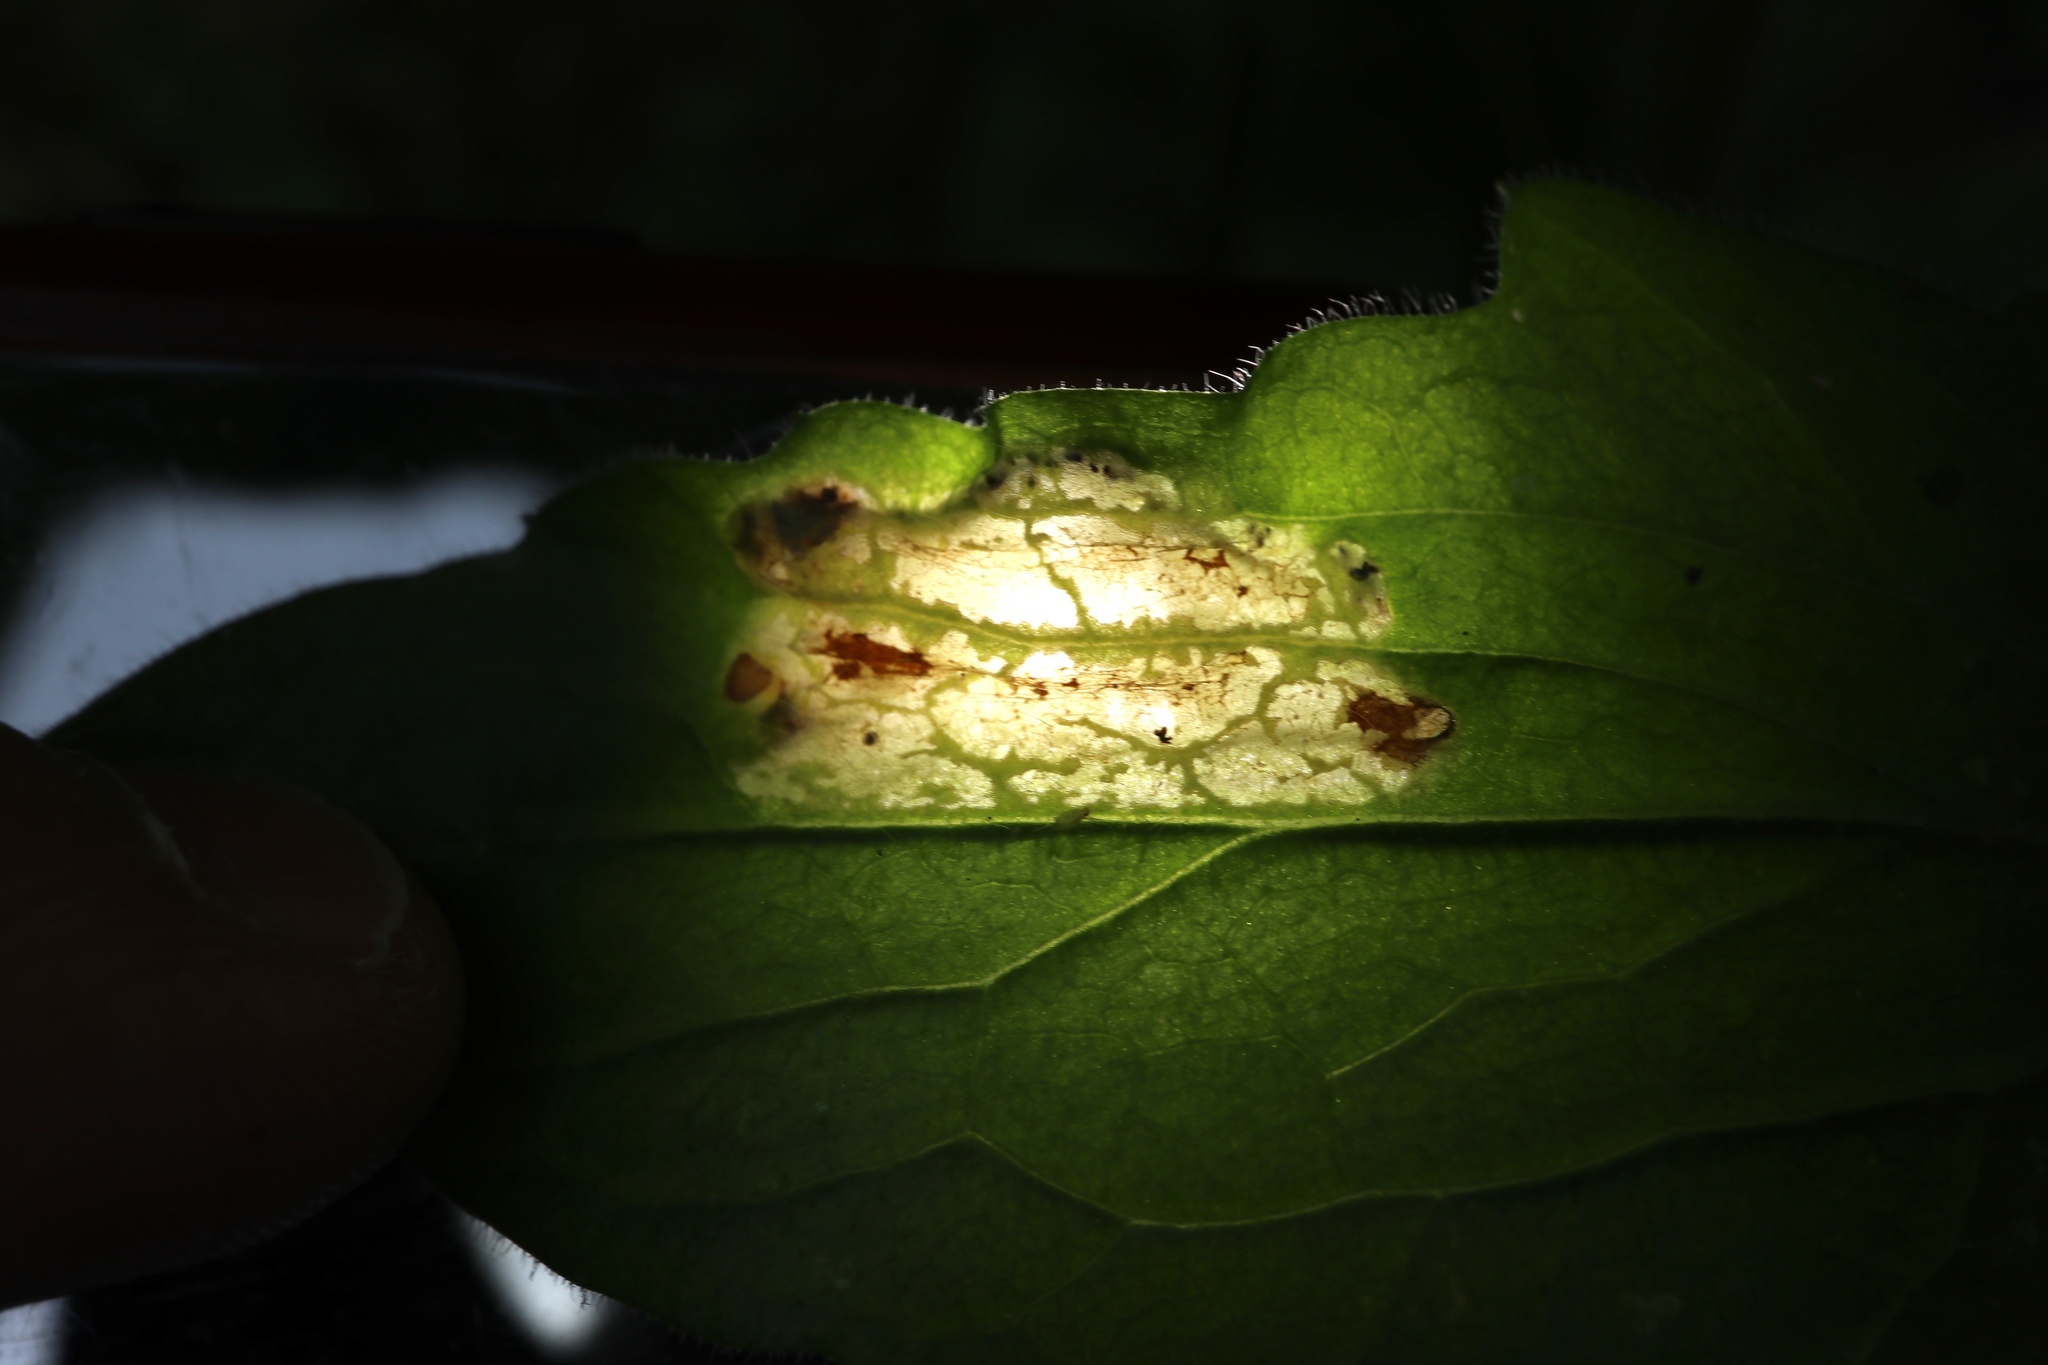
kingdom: Animalia
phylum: Arthropoda
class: Insecta
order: Lepidoptera
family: Gracillariidae
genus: Parectopa
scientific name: Parectopa plantaginisella
